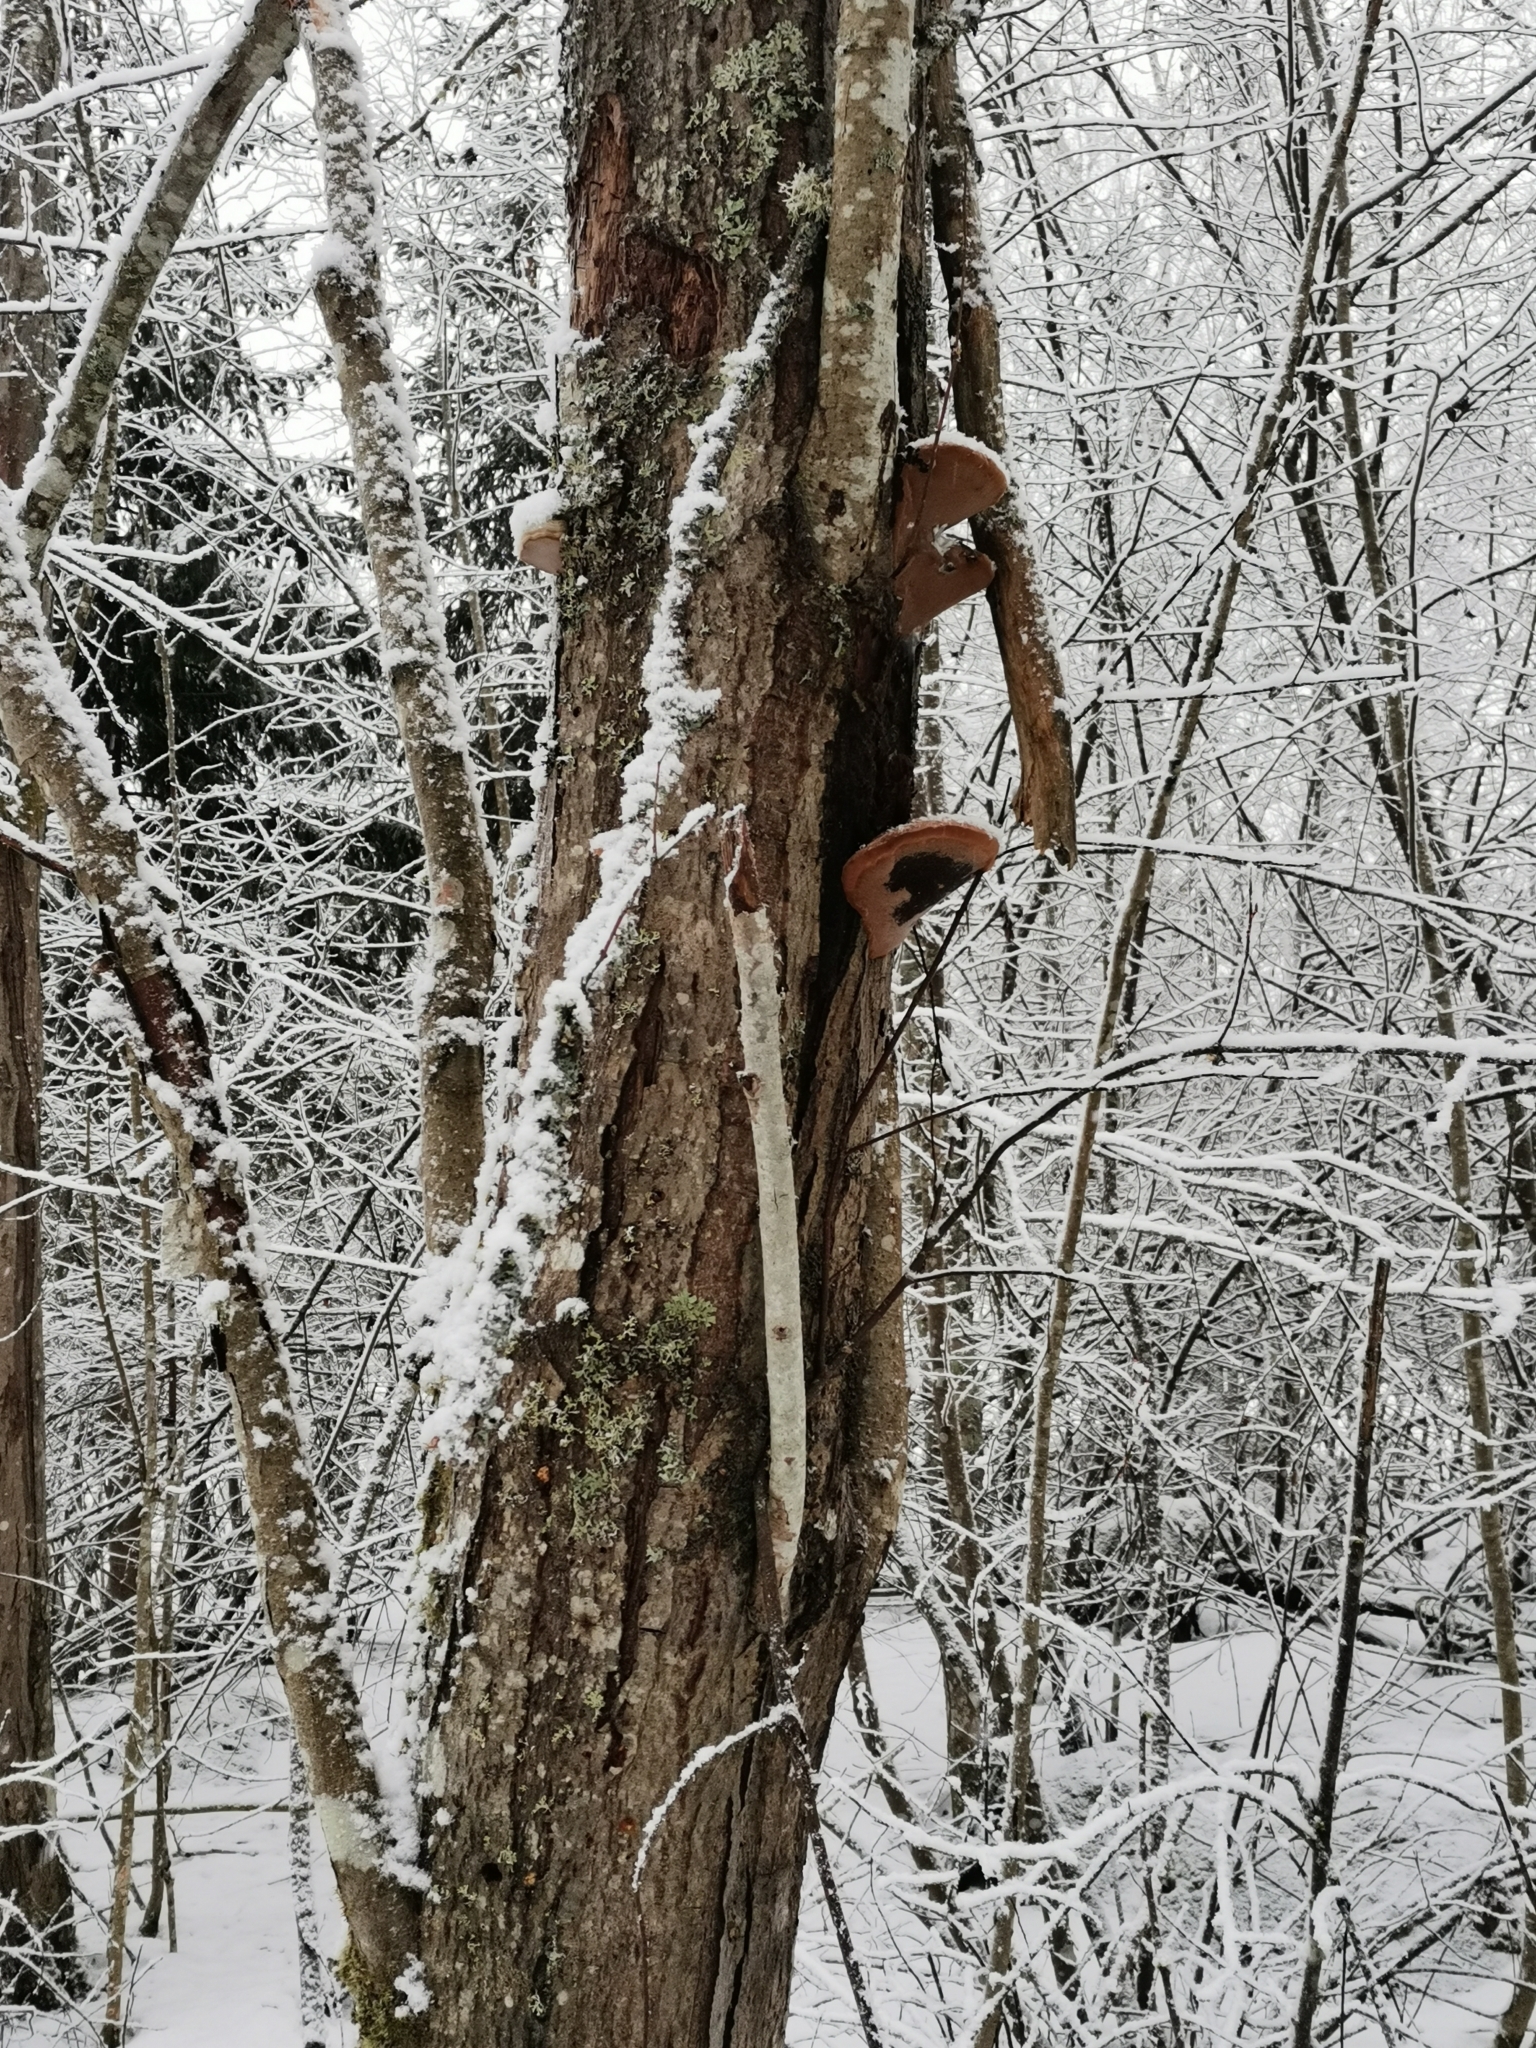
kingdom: Fungi
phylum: Basidiomycota
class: Agaricomycetes
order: Hymenochaetales
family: Hymenochaetaceae
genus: Phellinus
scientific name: Phellinus igniarius
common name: Willow bracket
